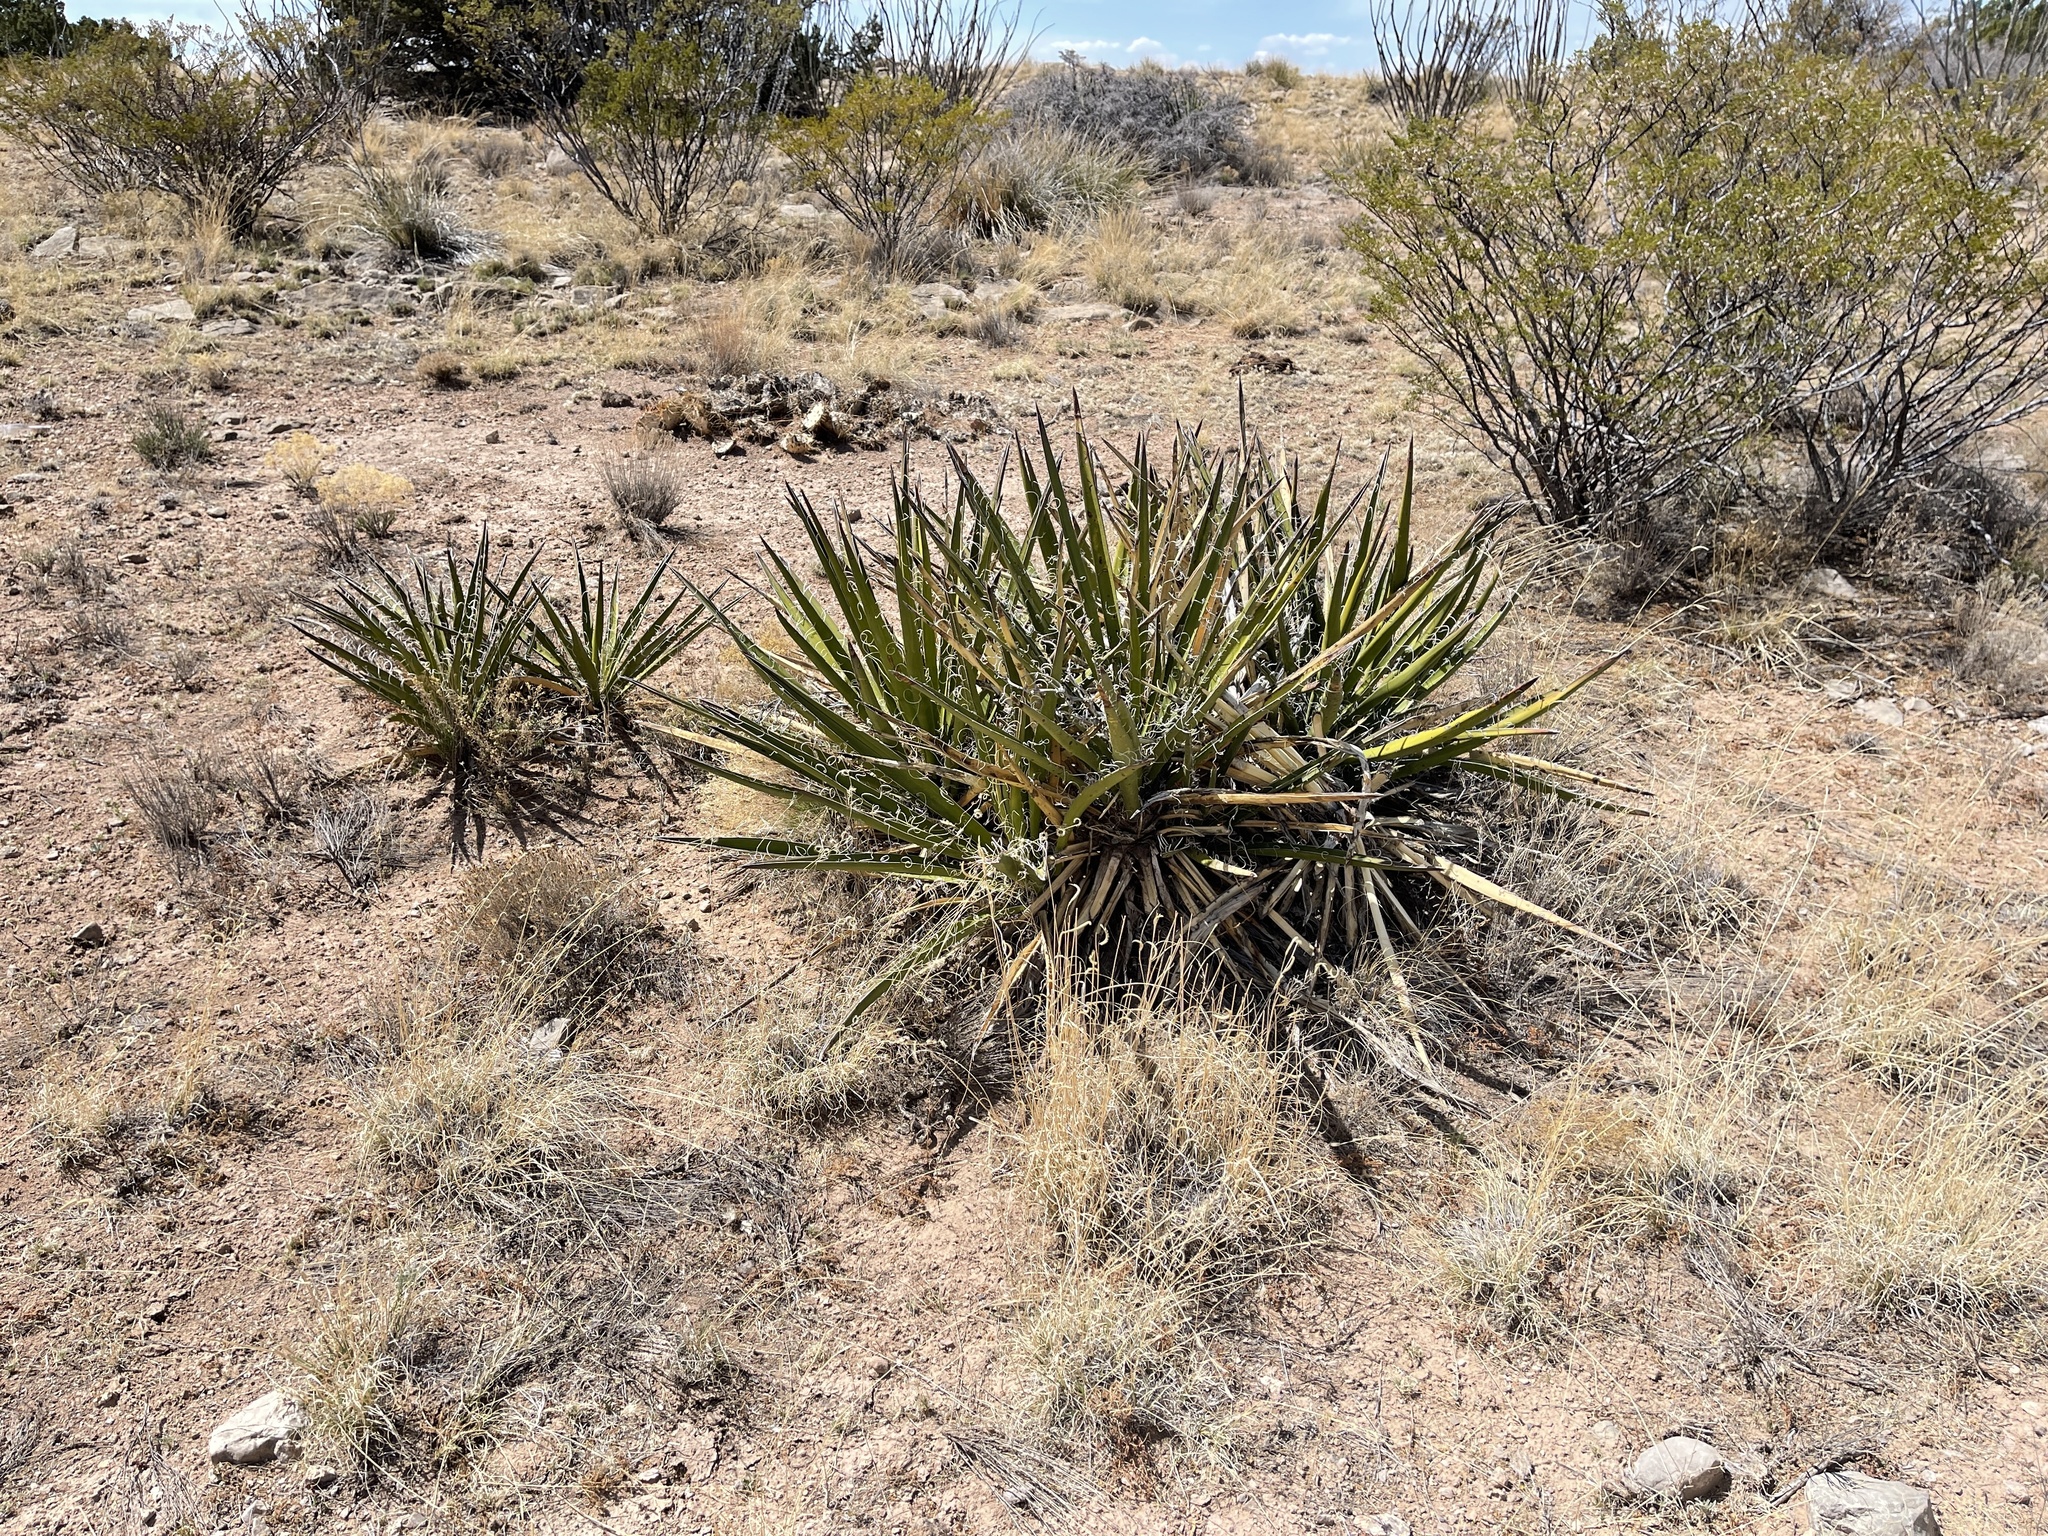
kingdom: Plantae
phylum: Tracheophyta
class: Liliopsida
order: Asparagales
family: Asparagaceae
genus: Yucca
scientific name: Yucca baccata
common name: Banana yucca
